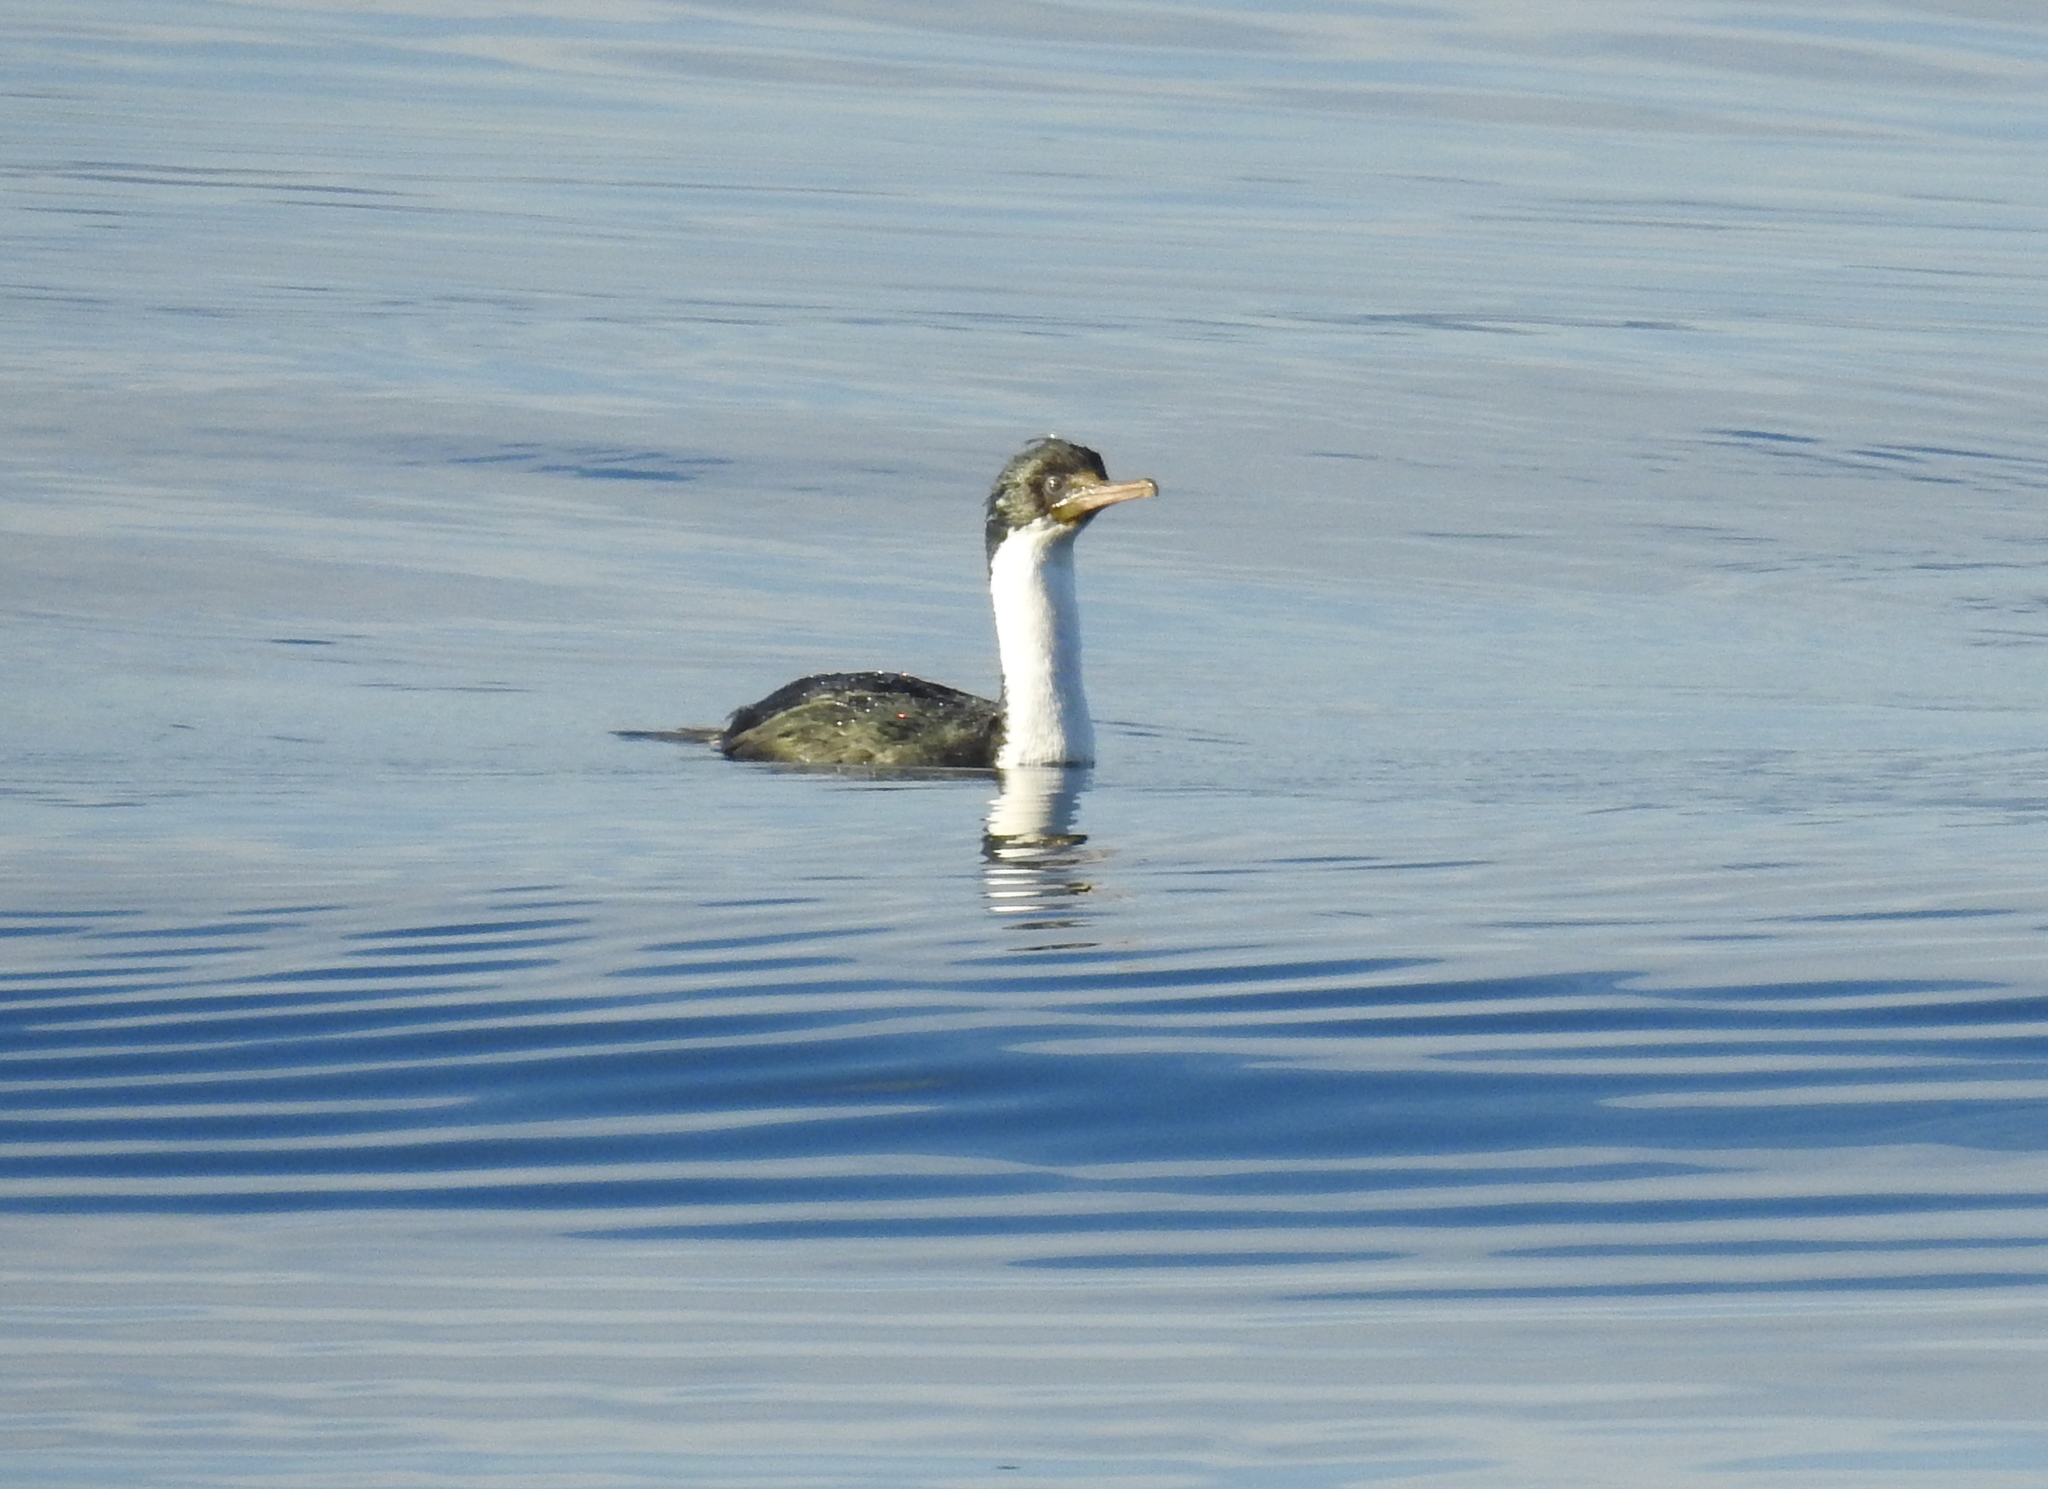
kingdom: Animalia
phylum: Chordata
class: Aves
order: Suliformes
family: Phalacrocoracidae
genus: Leucocarbo
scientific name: Leucocarbo atriceps
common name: Imperial shag
